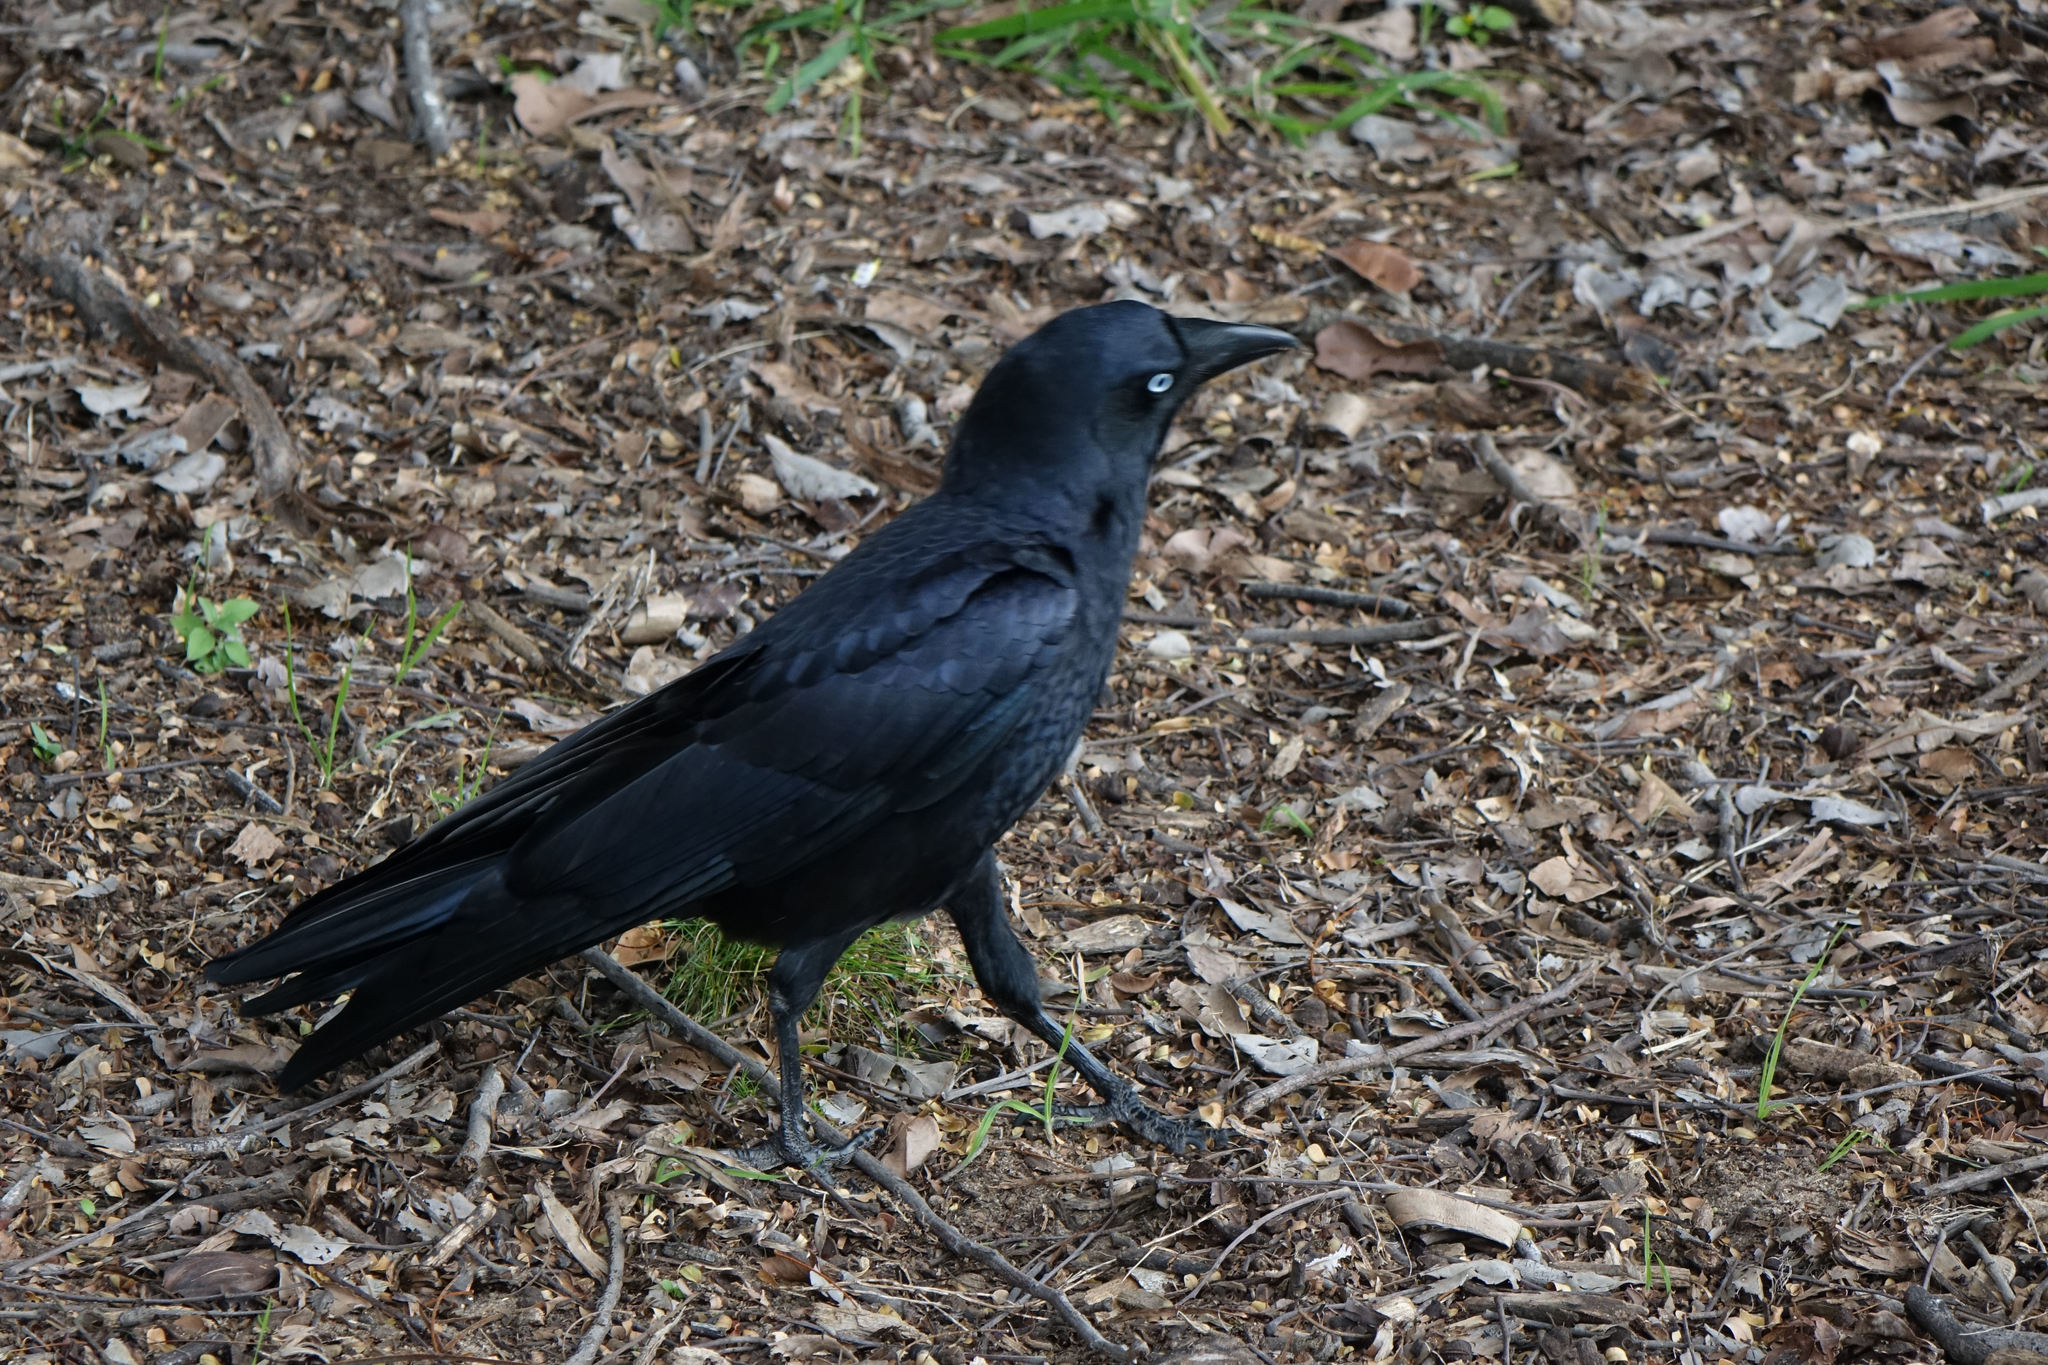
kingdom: Animalia
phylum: Chordata
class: Aves
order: Passeriformes
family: Corvidae
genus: Corvus
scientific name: Corvus orru
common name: Torresian crow
